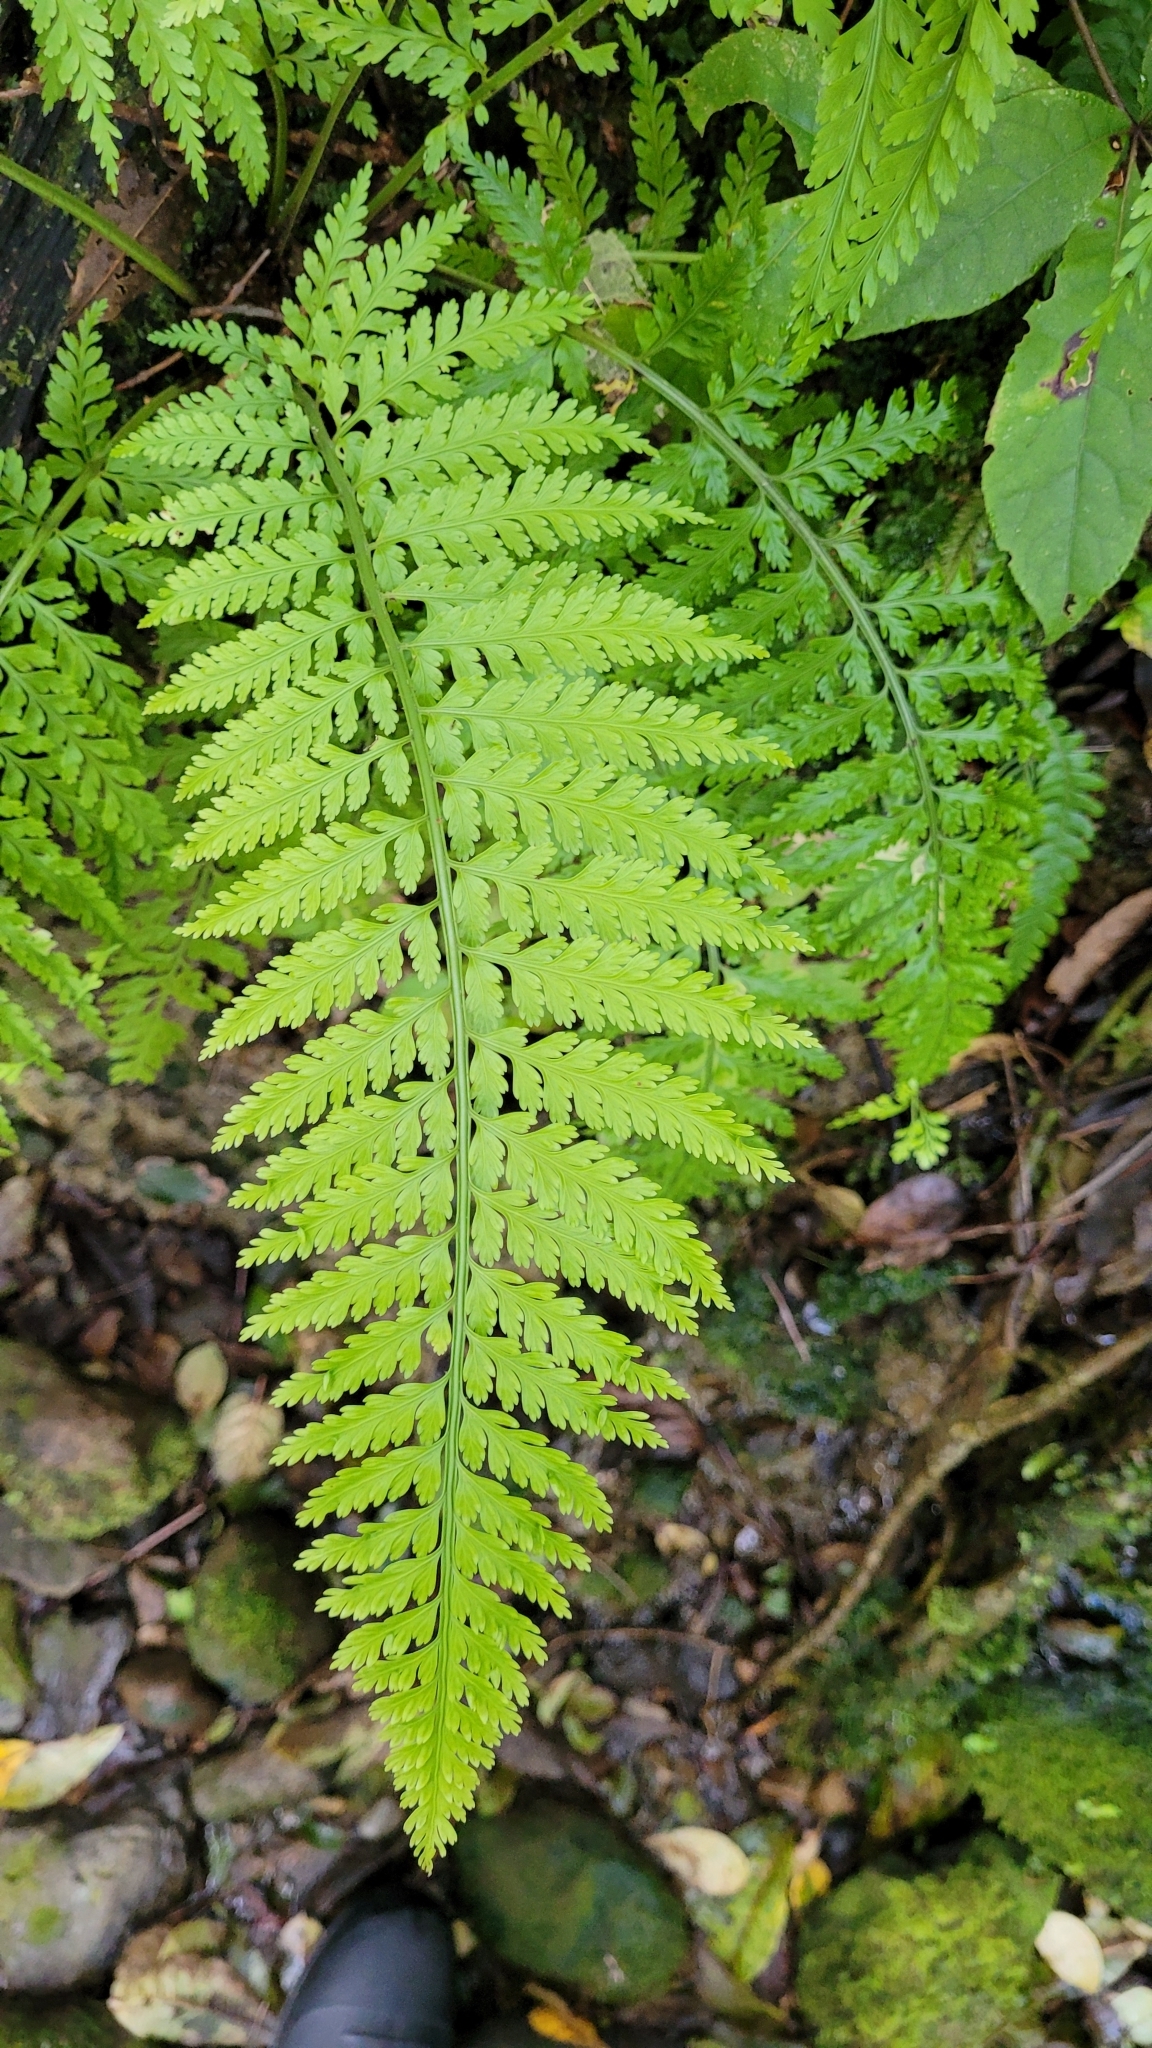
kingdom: Plantae
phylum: Tracheophyta
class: Polypodiopsida
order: Polypodiales
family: Aspleniaceae
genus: Asplenium
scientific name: Asplenium bulbiferum
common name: Mother fern
